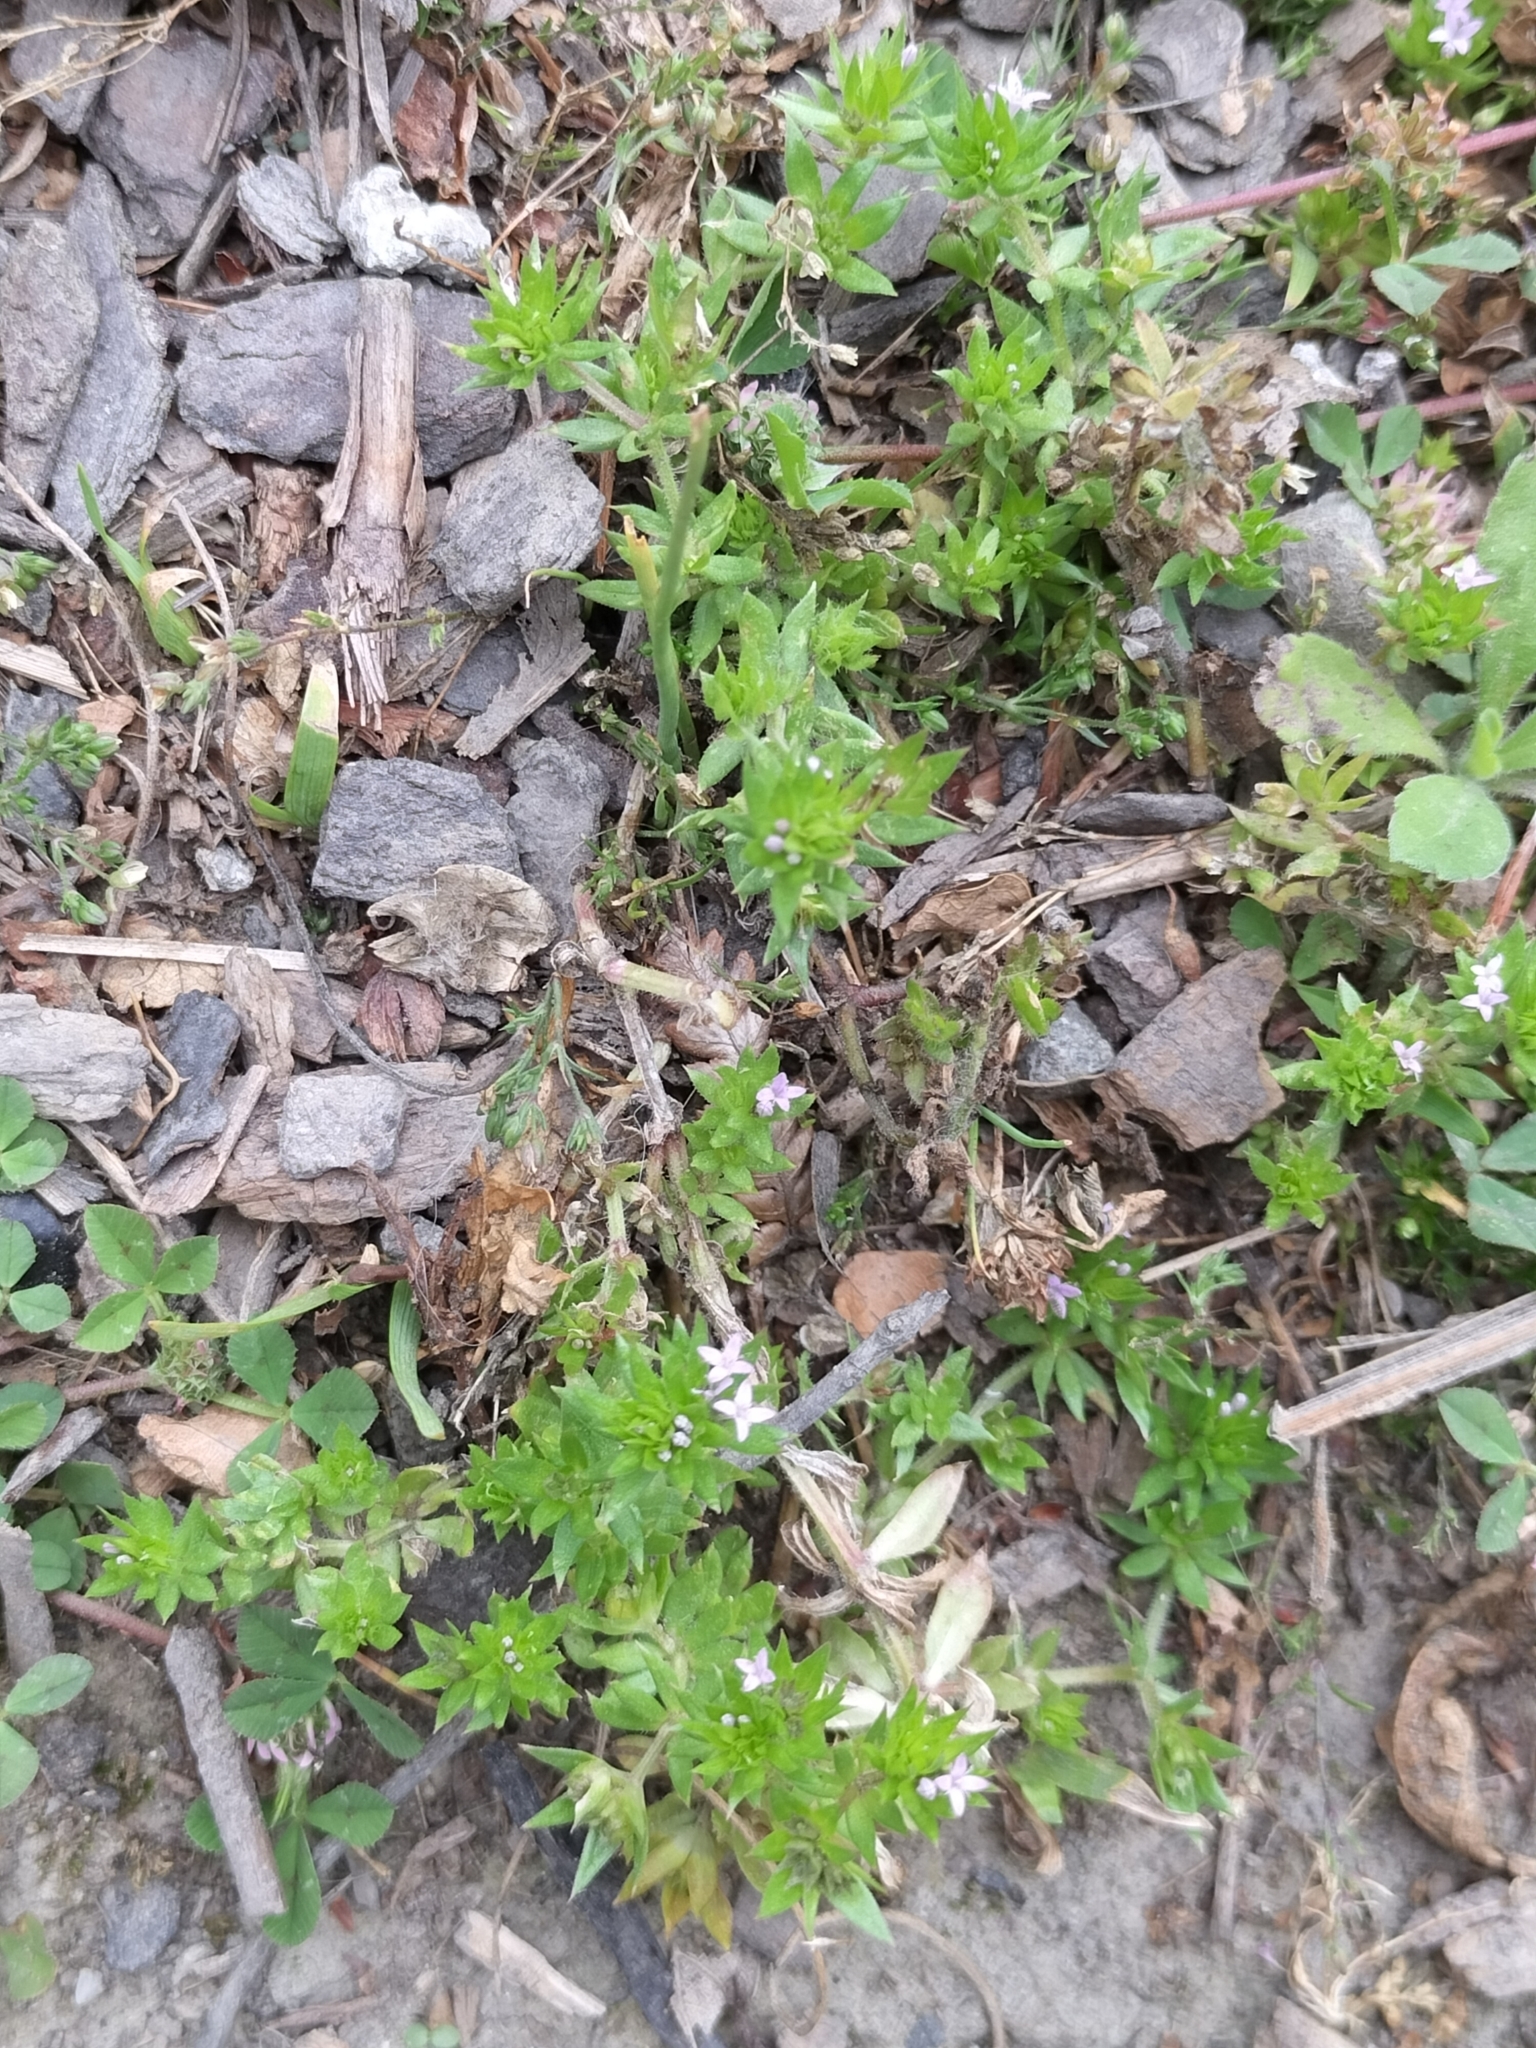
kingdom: Plantae
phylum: Tracheophyta
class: Magnoliopsida
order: Gentianales
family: Rubiaceae
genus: Sherardia
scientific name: Sherardia arvensis
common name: Field madder
